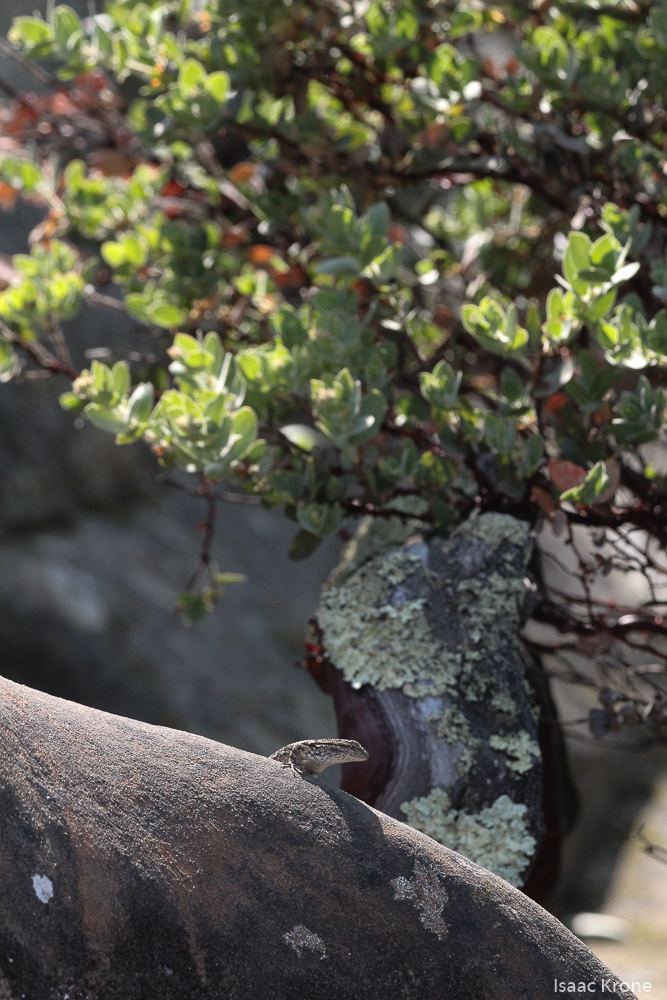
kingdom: Animalia
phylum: Chordata
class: Squamata
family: Phrynosomatidae
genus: Sceloporus
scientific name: Sceloporus occidentalis
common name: Western fence lizard
